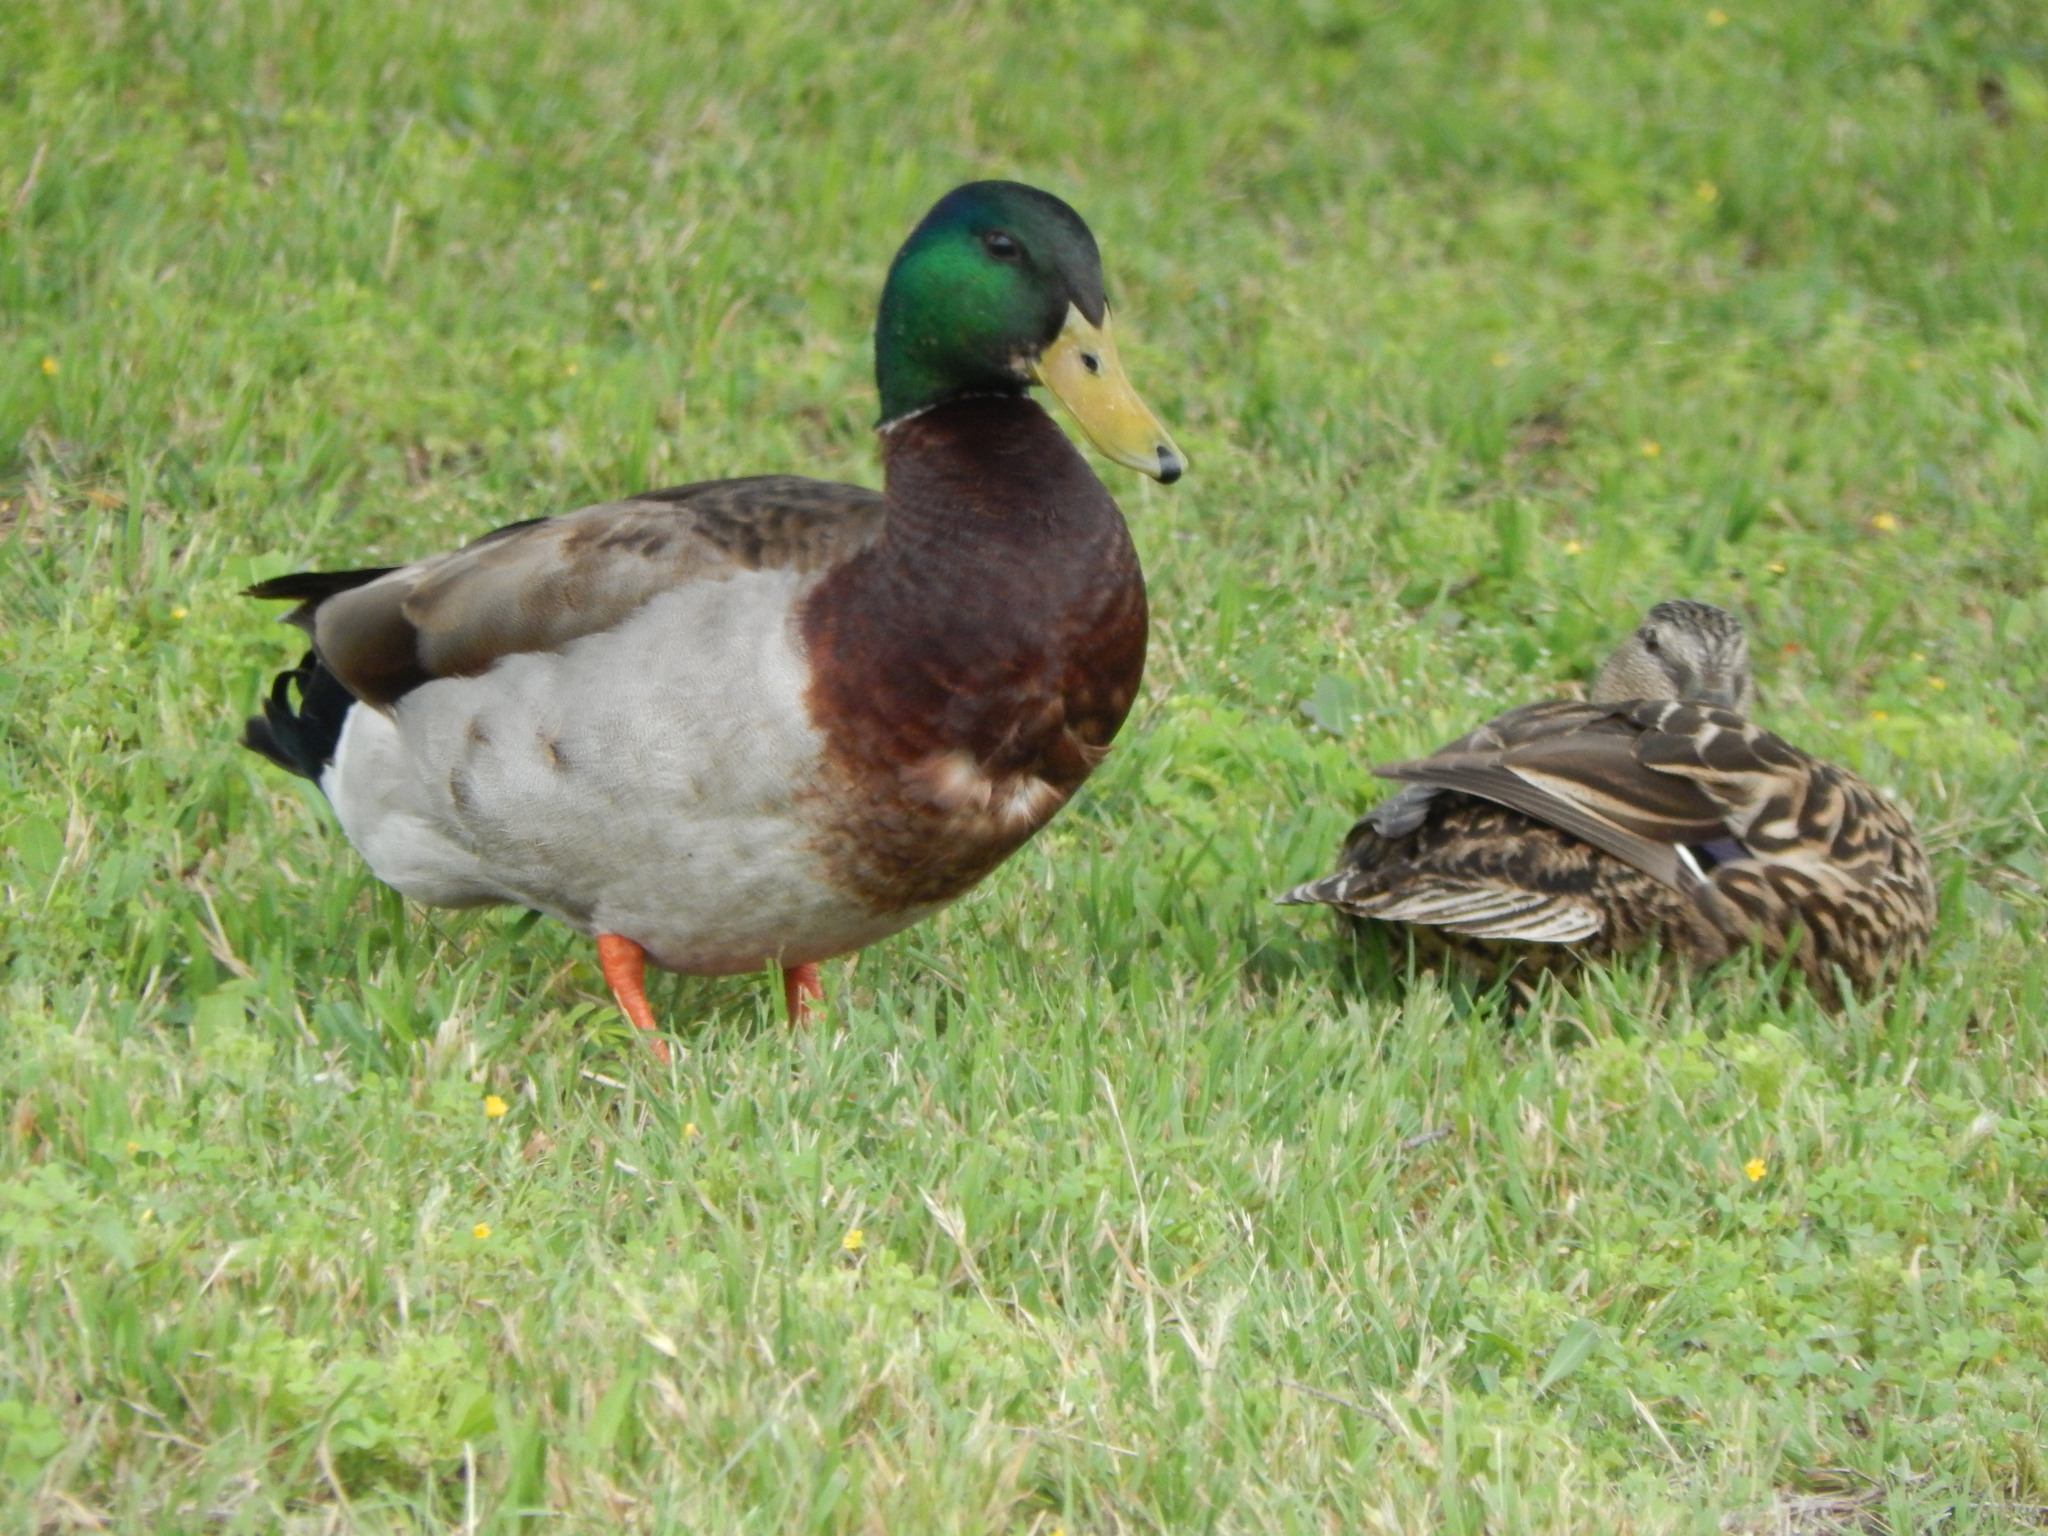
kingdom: Animalia
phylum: Chordata
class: Aves
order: Anseriformes
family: Anatidae
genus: Anas
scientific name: Anas platyrhynchos
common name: Mallard
